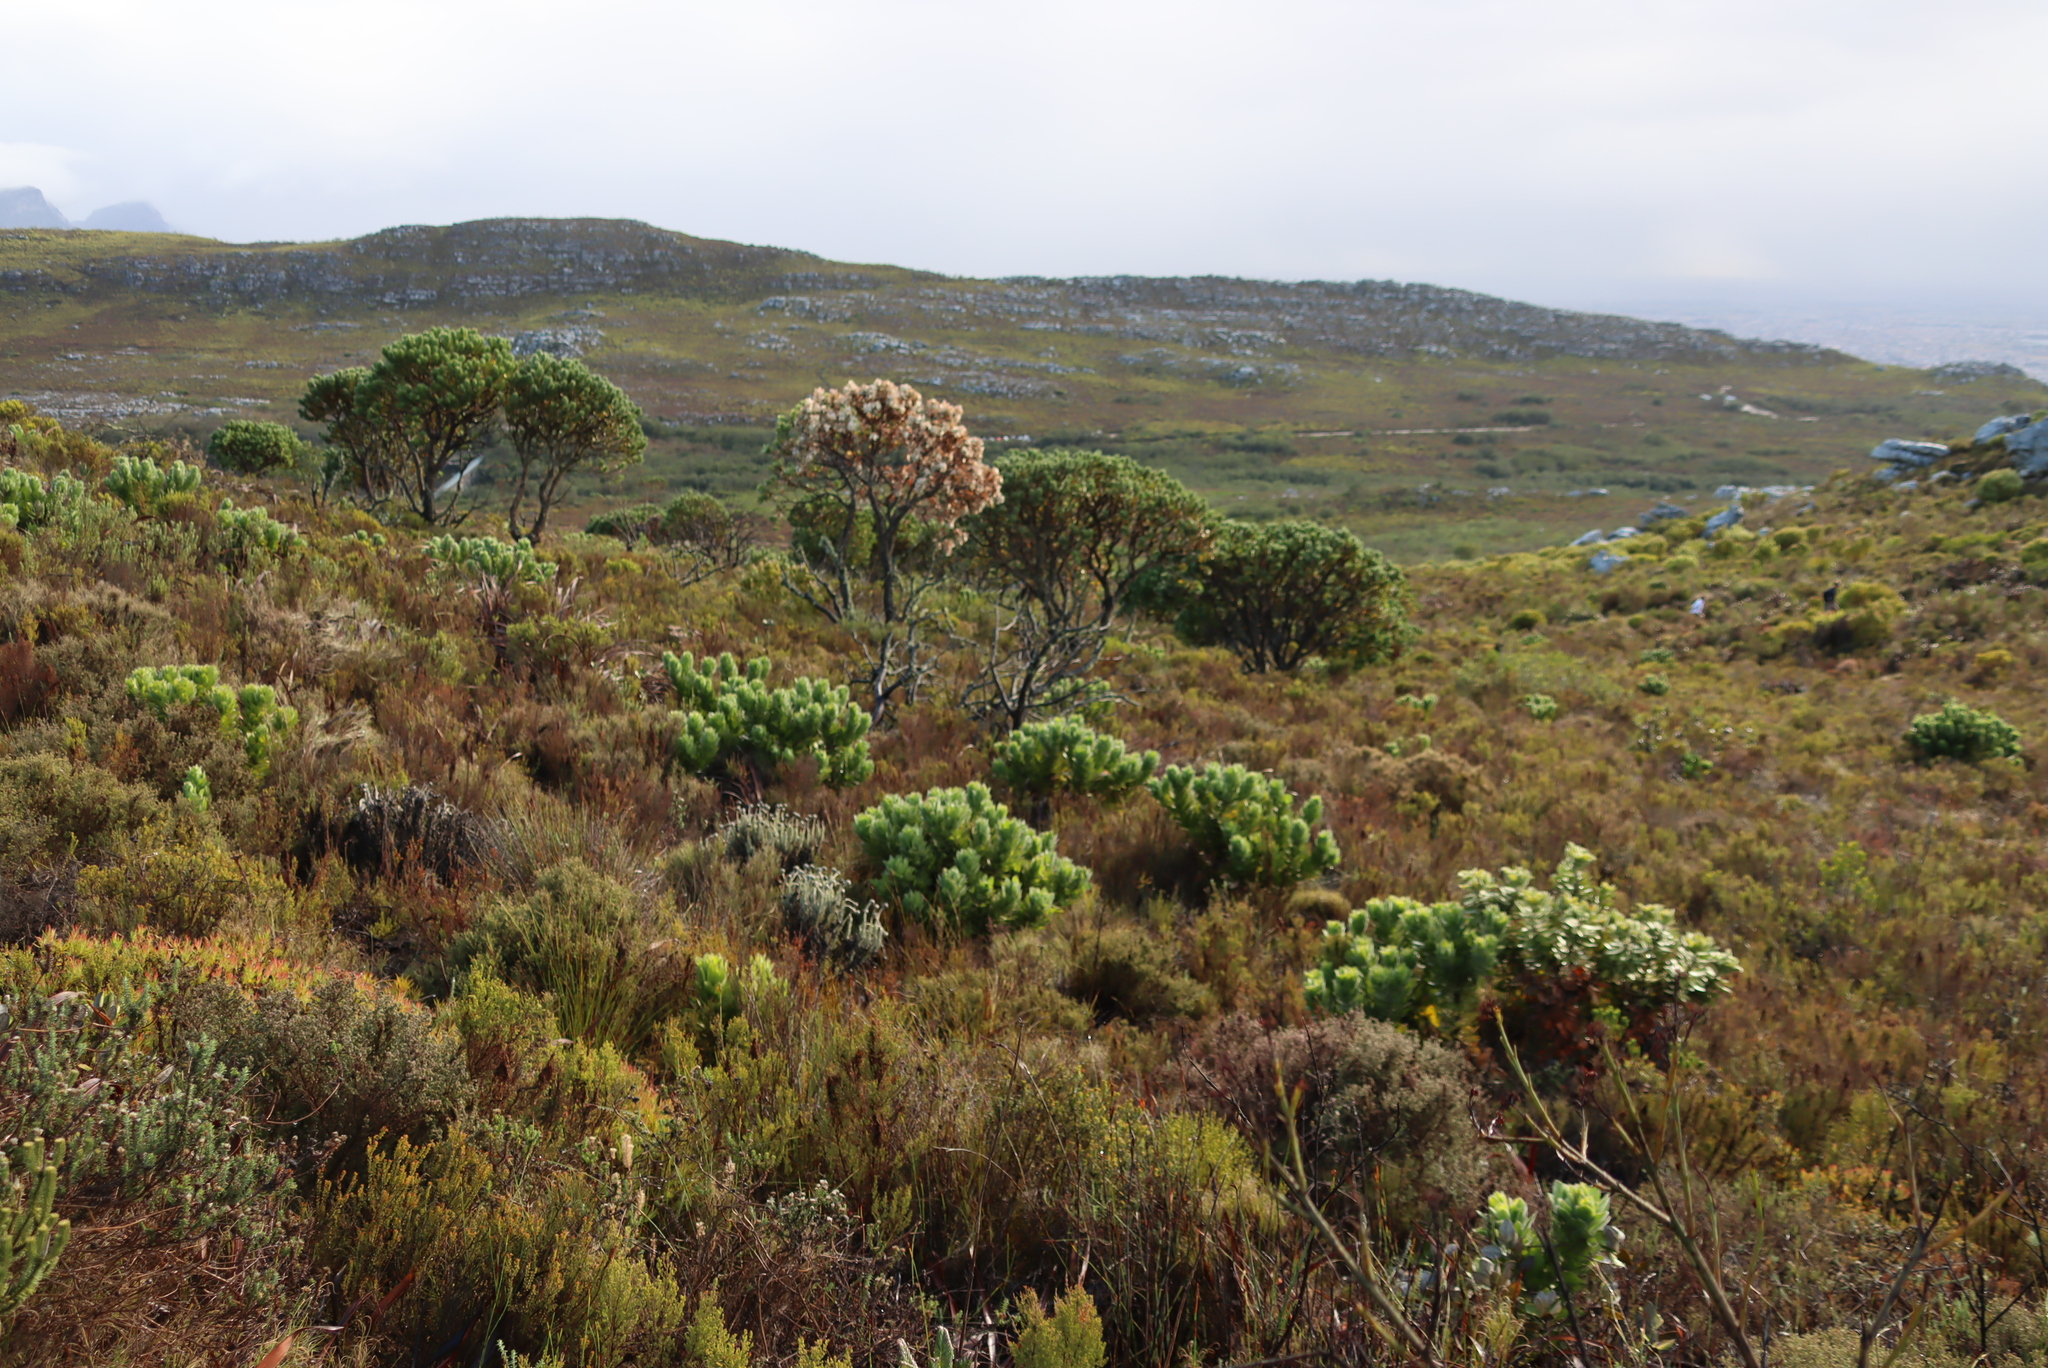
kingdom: Plantae
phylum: Tracheophyta
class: Magnoliopsida
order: Proteales
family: Proteaceae
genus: Leucospermum
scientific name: Leucospermum conocarpodendron
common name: Tree pincushion
